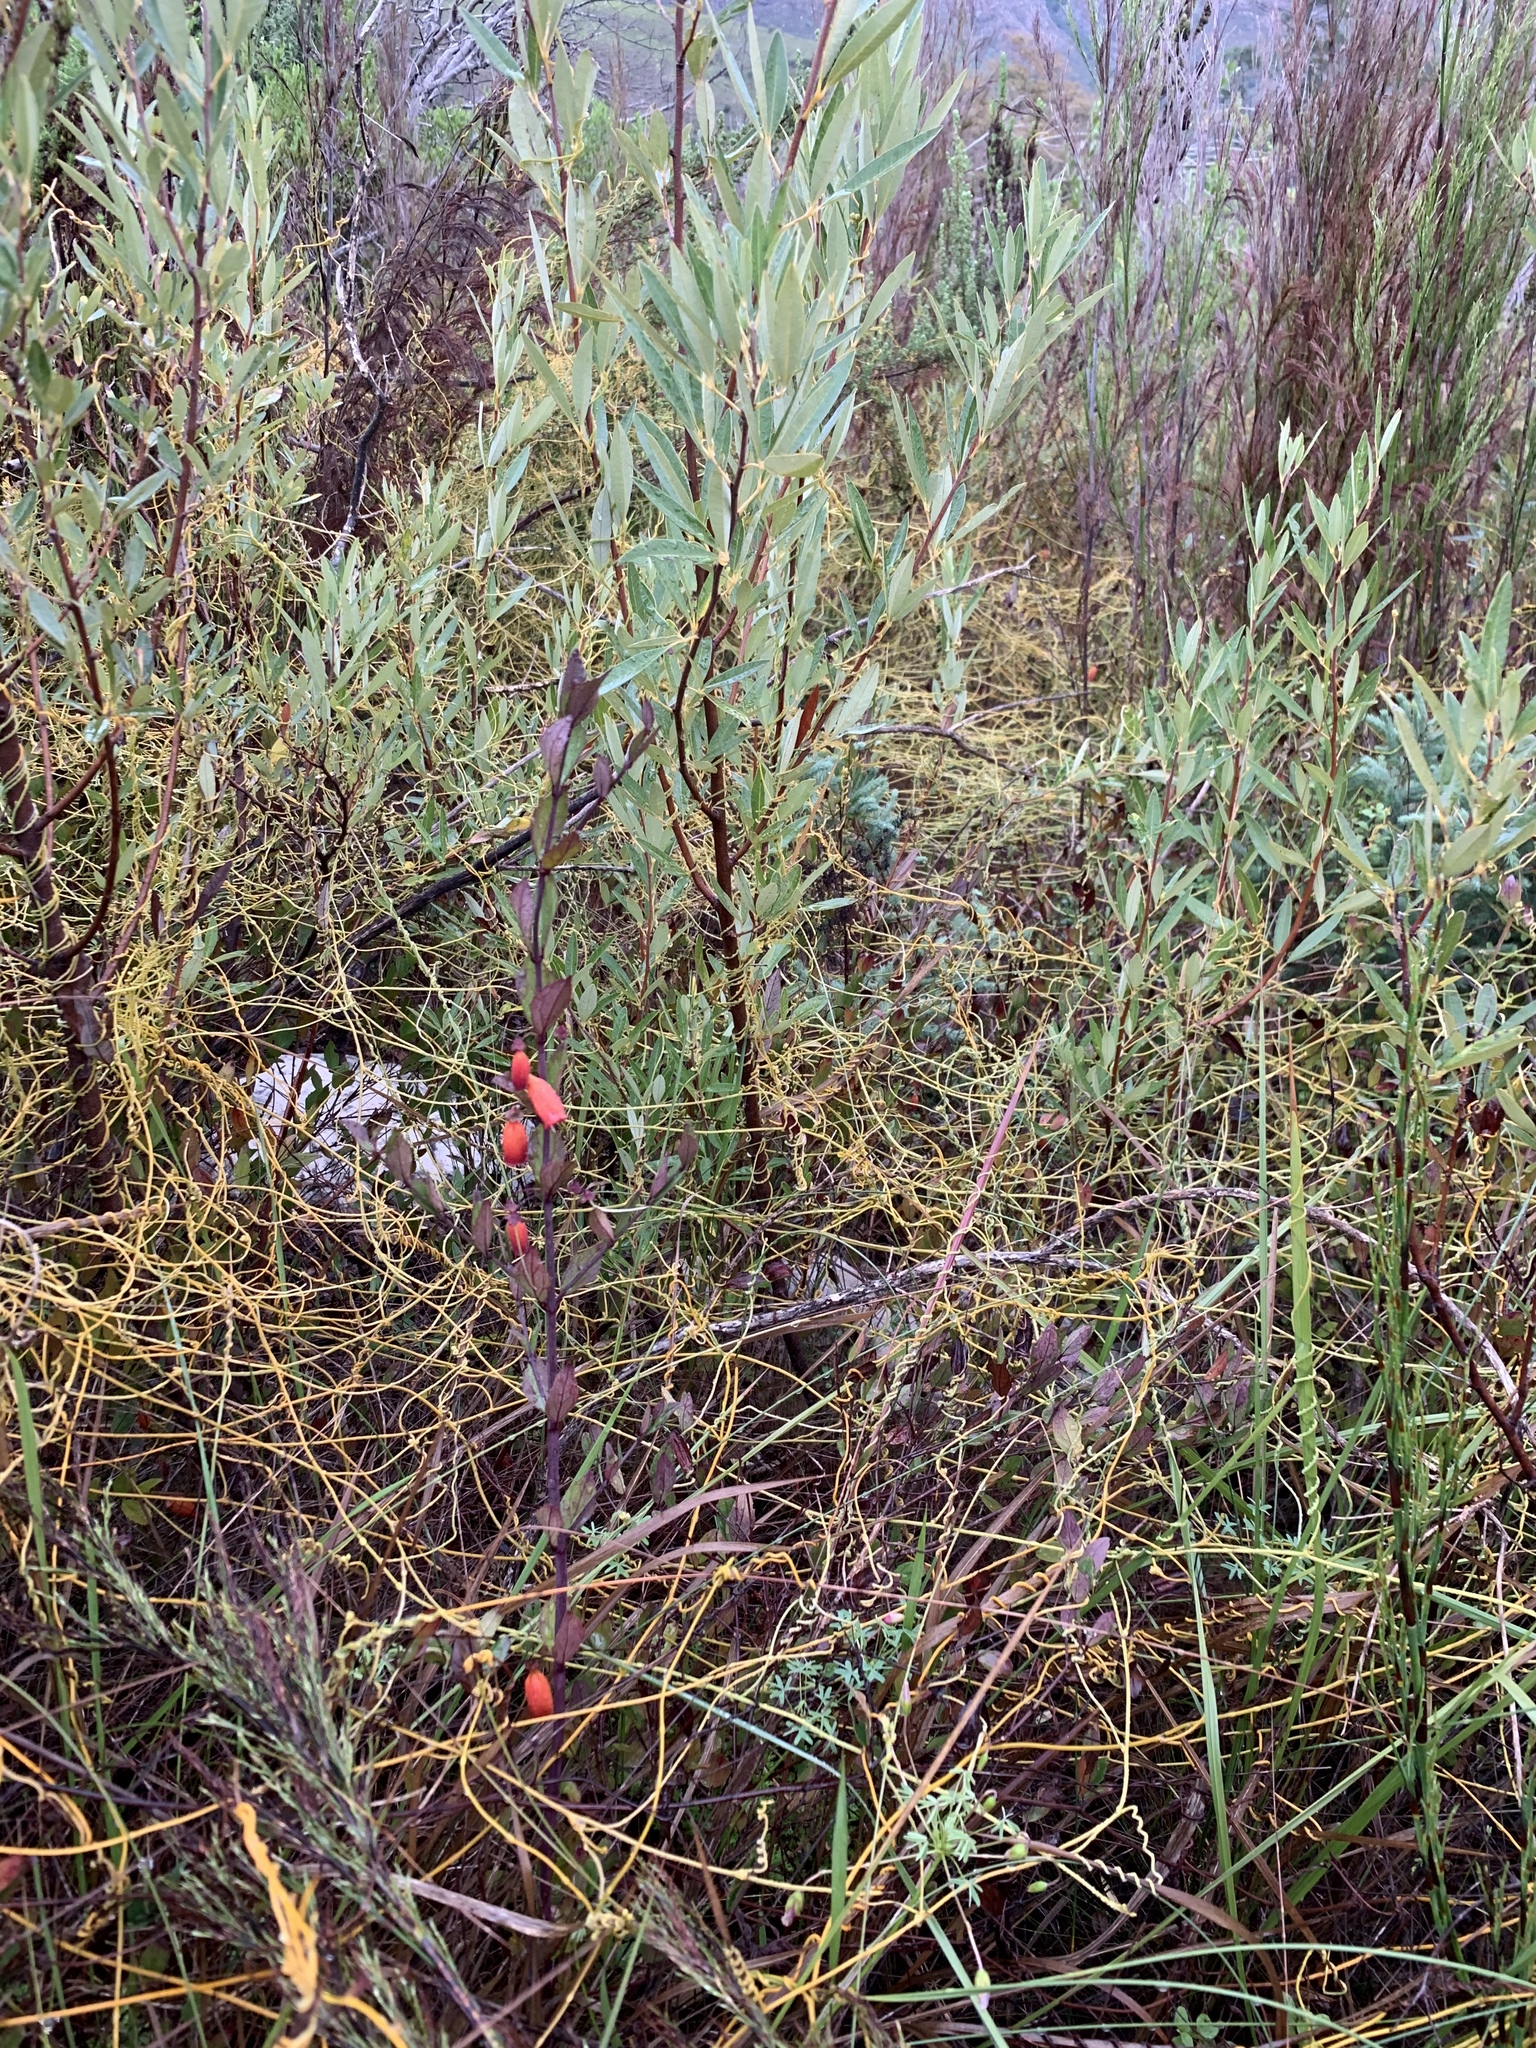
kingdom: Plantae
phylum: Tracheophyta
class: Magnoliopsida
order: Lamiales
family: Stilbaceae
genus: Halleria
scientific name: Halleria elliptica
